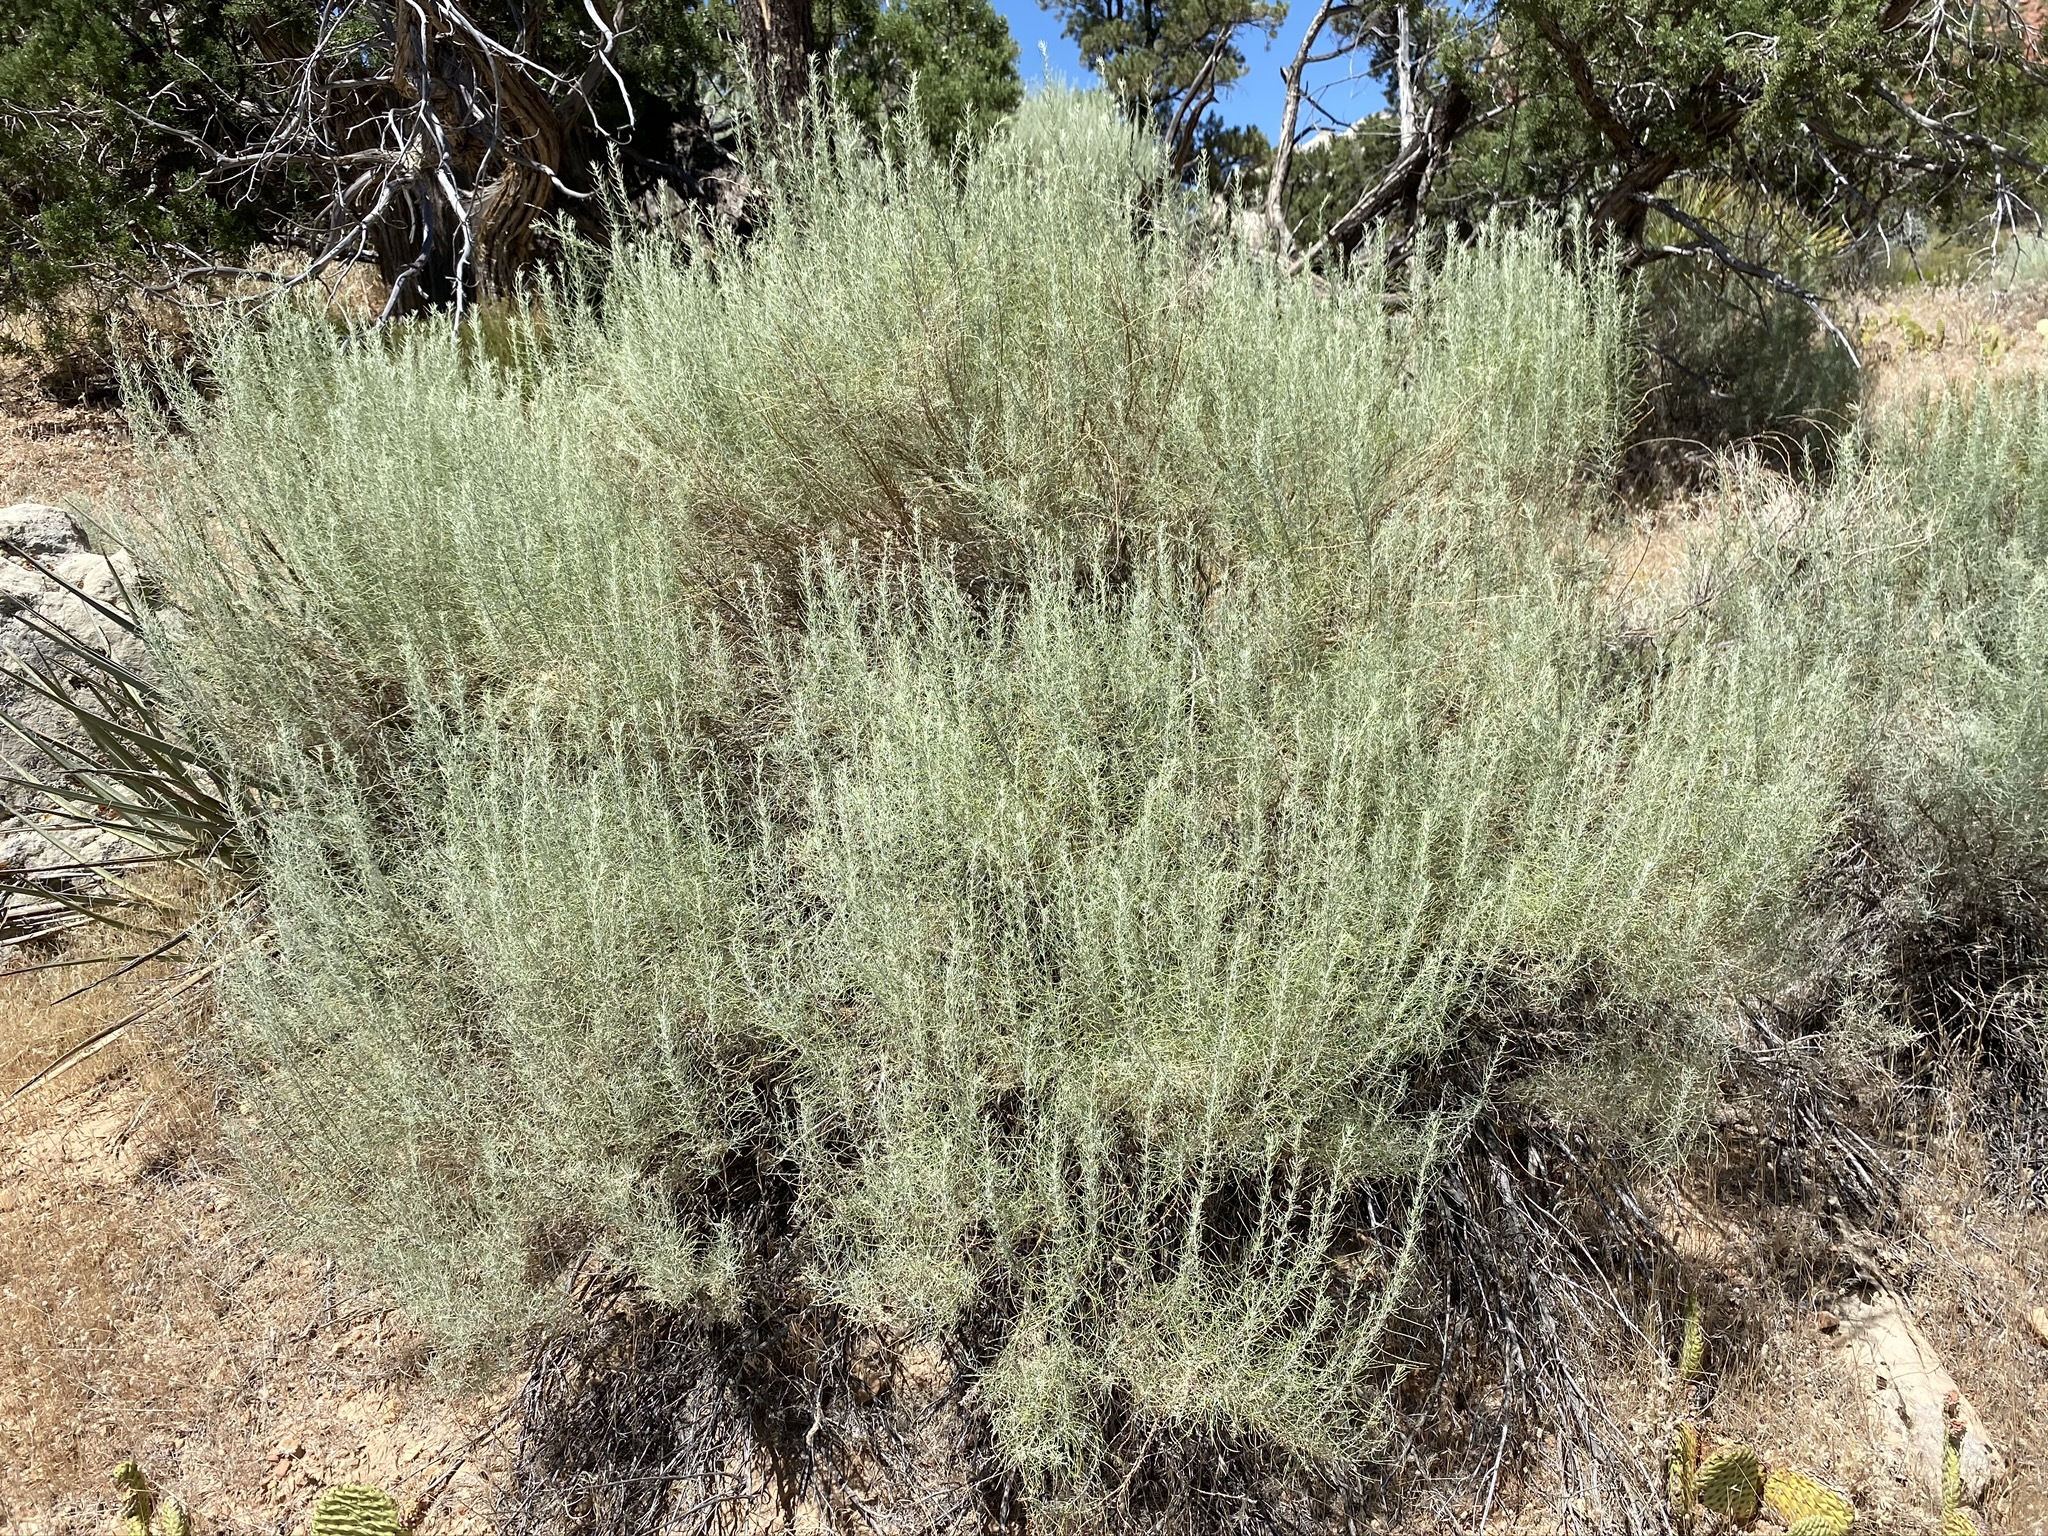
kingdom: Plantae
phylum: Tracheophyta
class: Magnoliopsida
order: Asterales
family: Asteraceae
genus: Artemisia
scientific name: Artemisia filifolia
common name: Sand-sage
